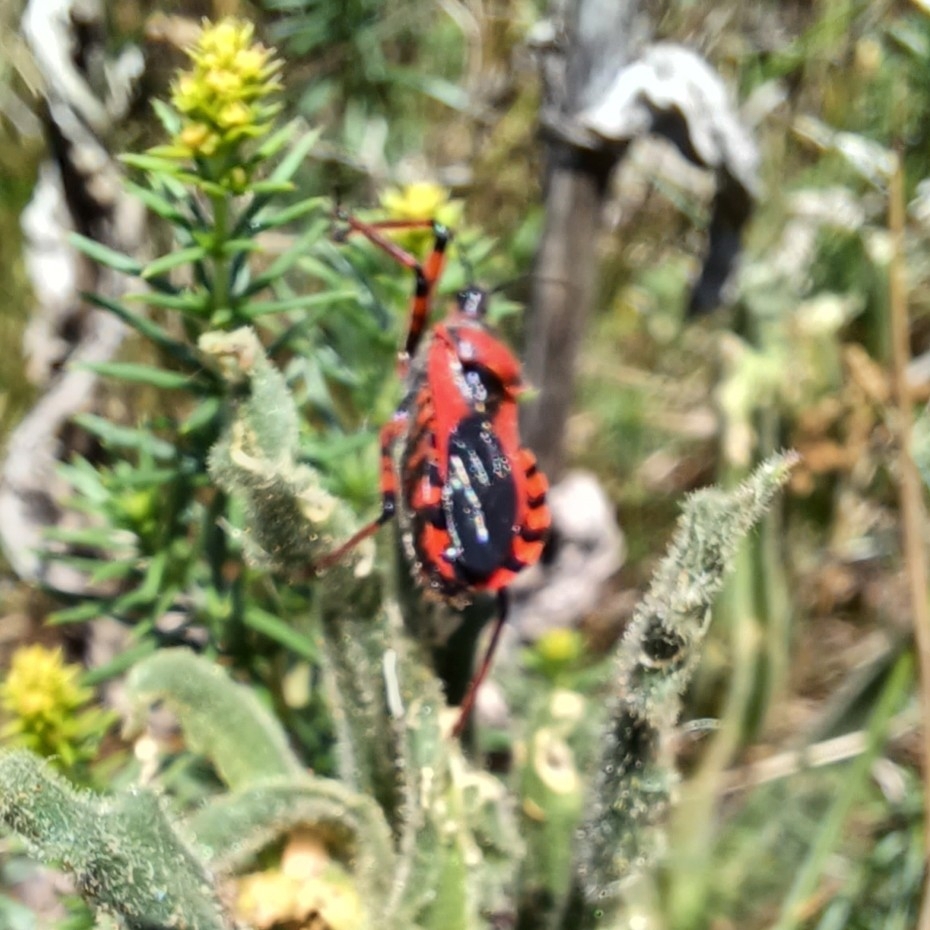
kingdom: Animalia
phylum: Arthropoda
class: Insecta
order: Hemiptera
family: Reduviidae
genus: Rhynocoris
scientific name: Rhynocoris iracundus
